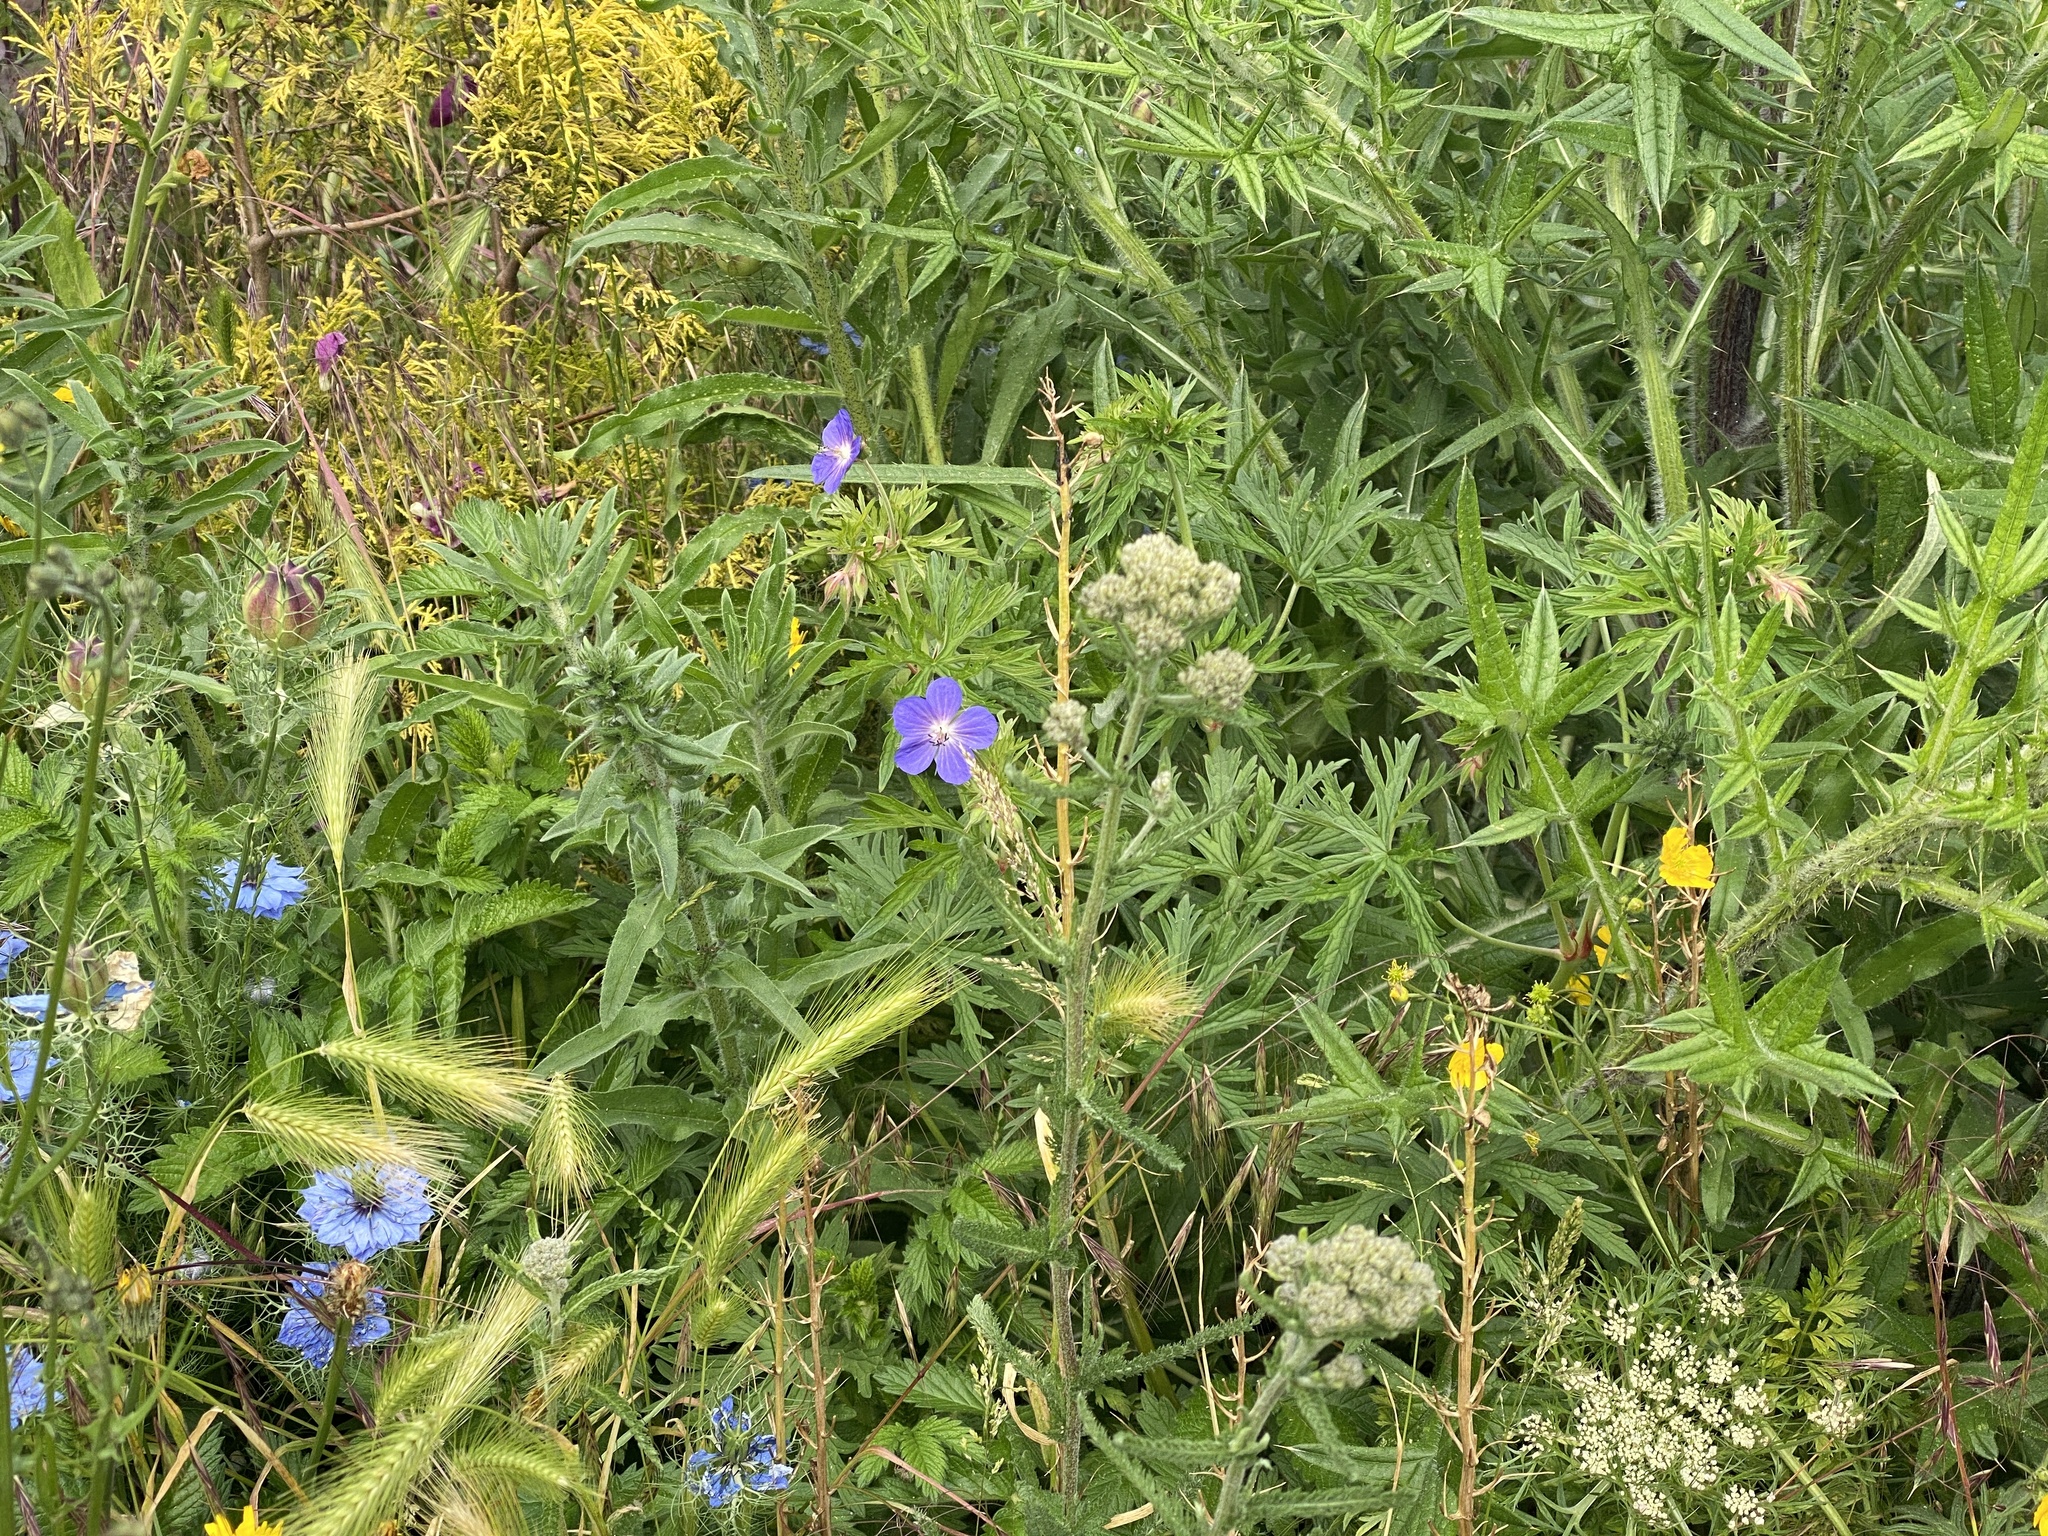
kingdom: Plantae
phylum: Tracheophyta
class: Magnoliopsida
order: Geraniales
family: Geraniaceae
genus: Geranium
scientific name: Geranium pratense
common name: Meadow crane's-bill
